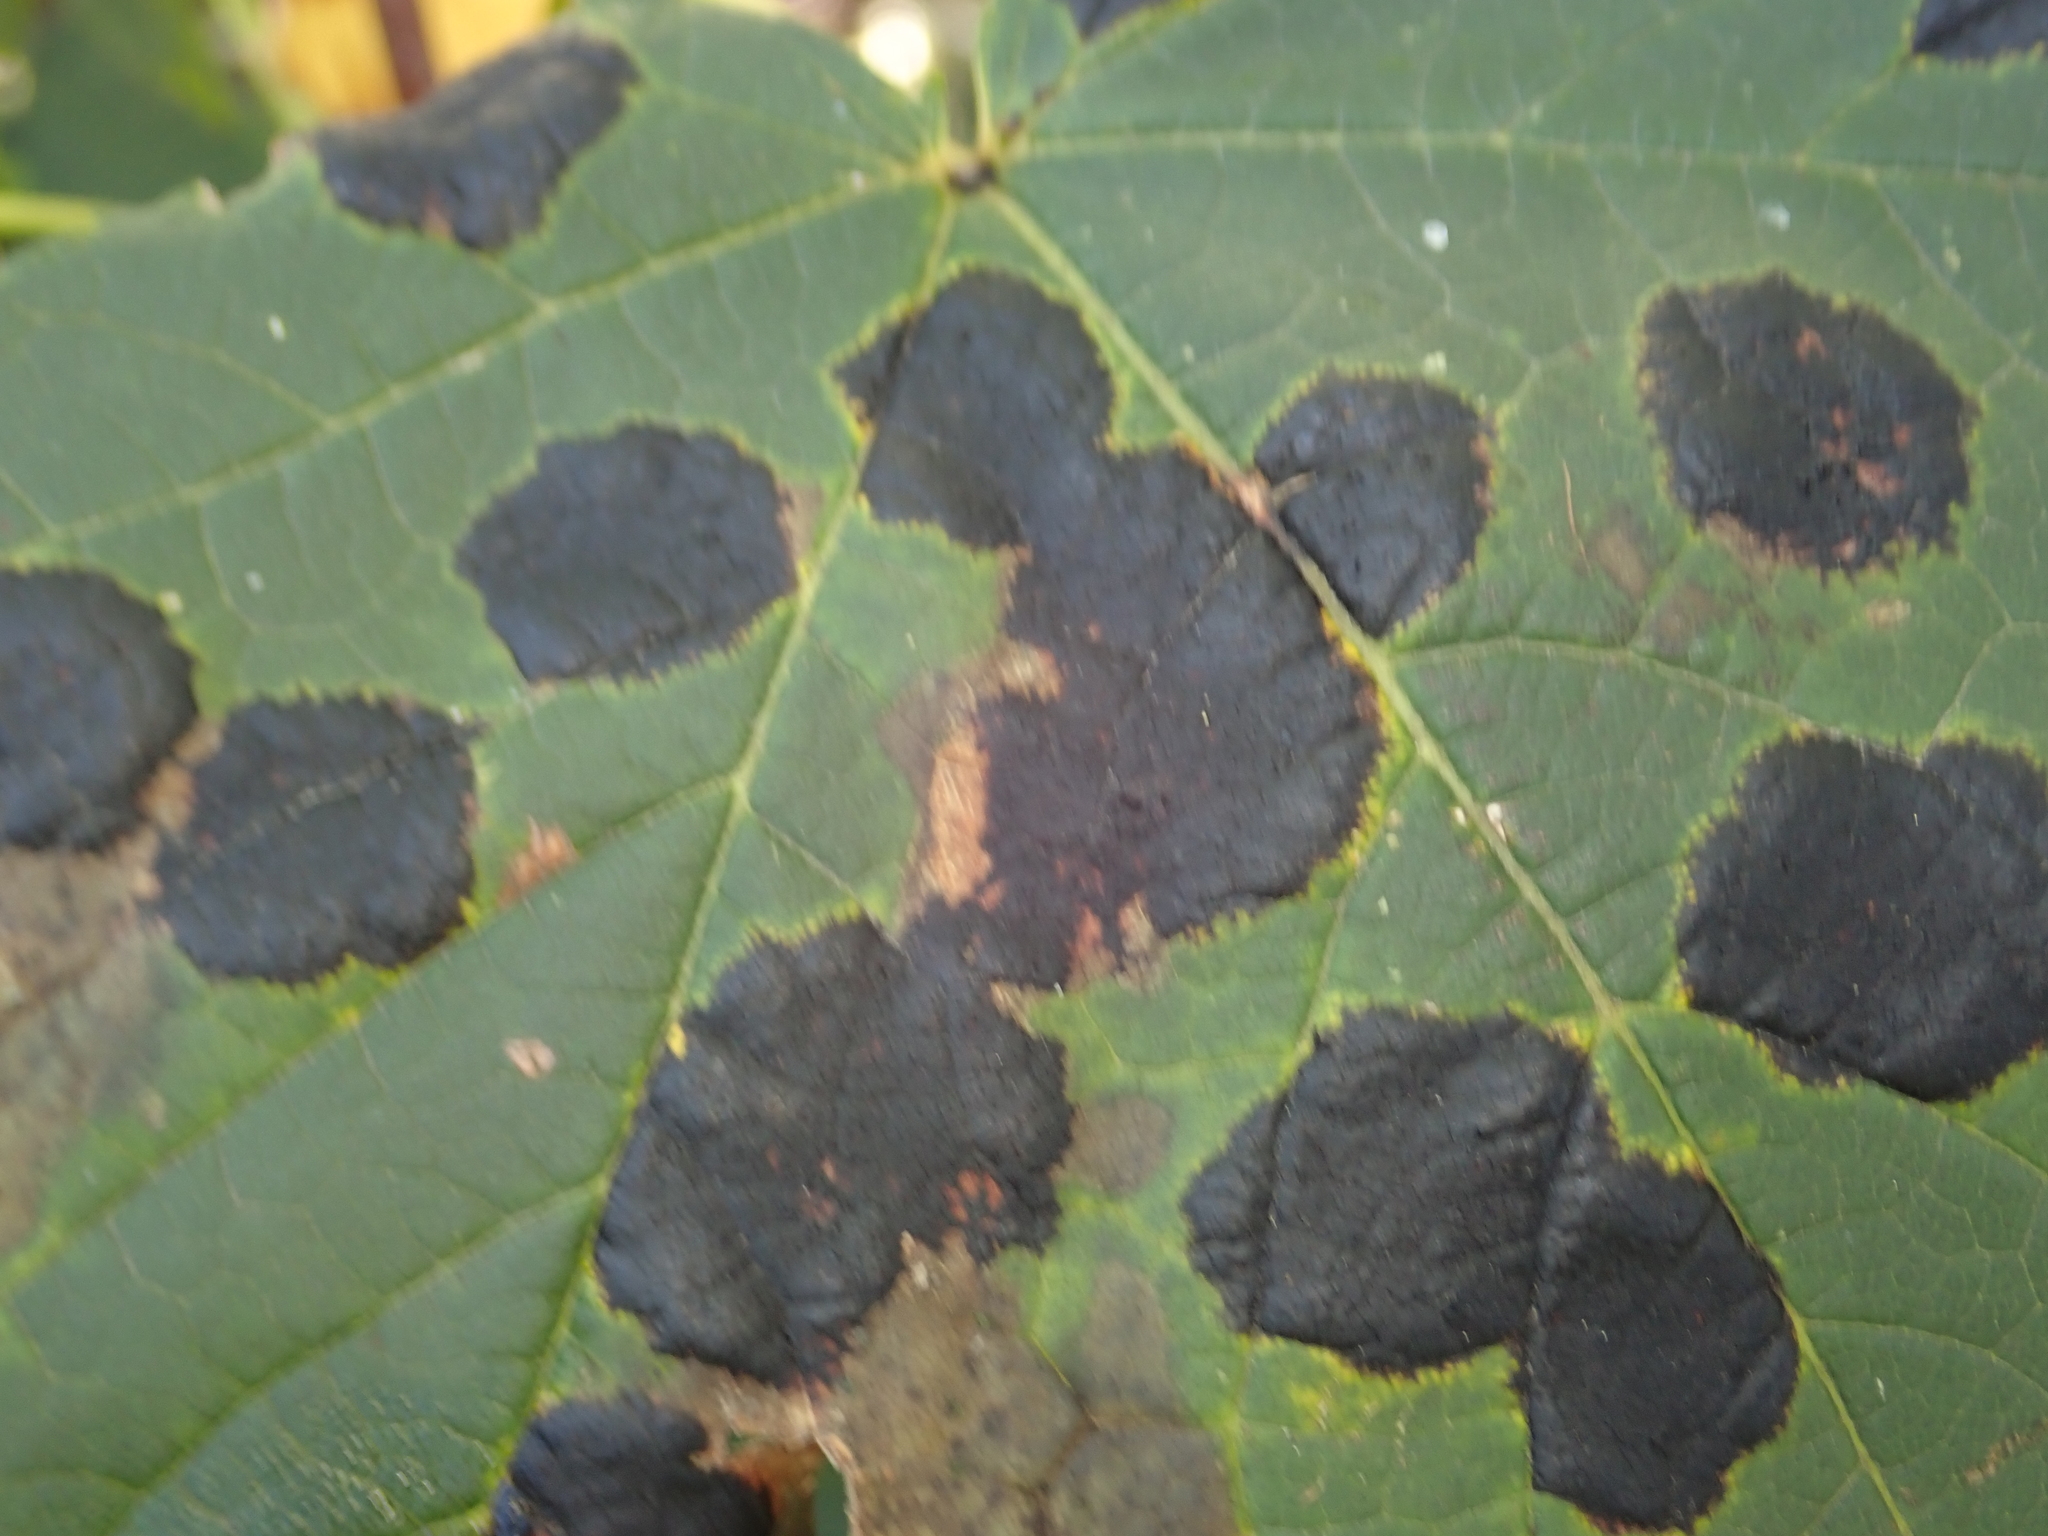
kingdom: Fungi
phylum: Ascomycota
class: Leotiomycetes
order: Rhytismatales
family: Rhytismataceae
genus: Rhytisma
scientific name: Rhytisma acerinum
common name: European tar spot
